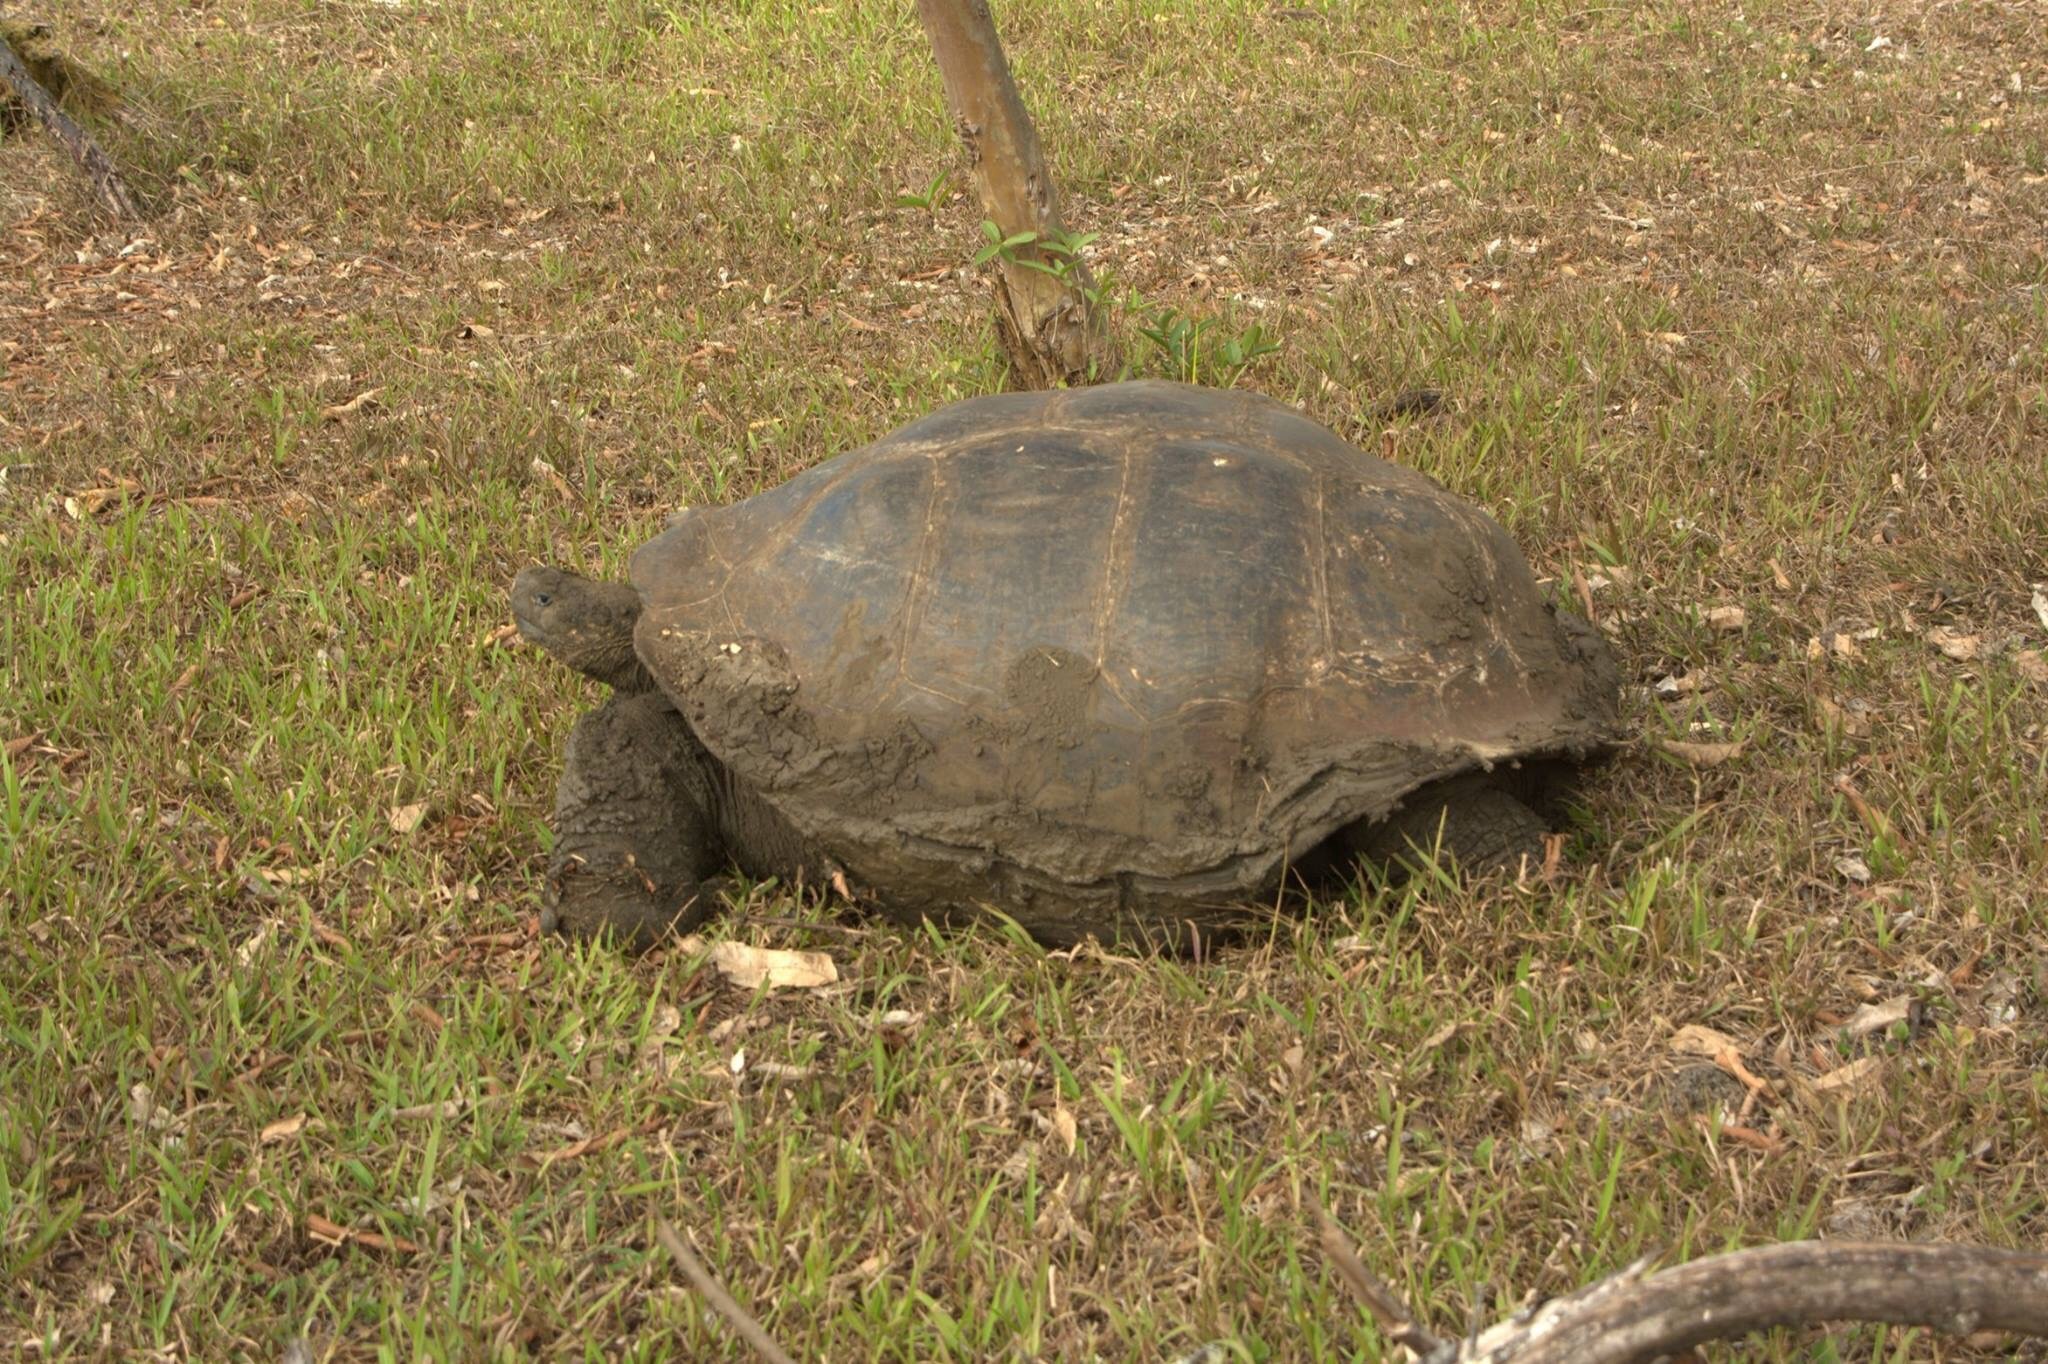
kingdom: Animalia
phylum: Chordata
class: Testudines
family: Testudinidae
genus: Chelonoidis
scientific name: Chelonoidis porteri
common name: Indefatigable island giant tortoise
